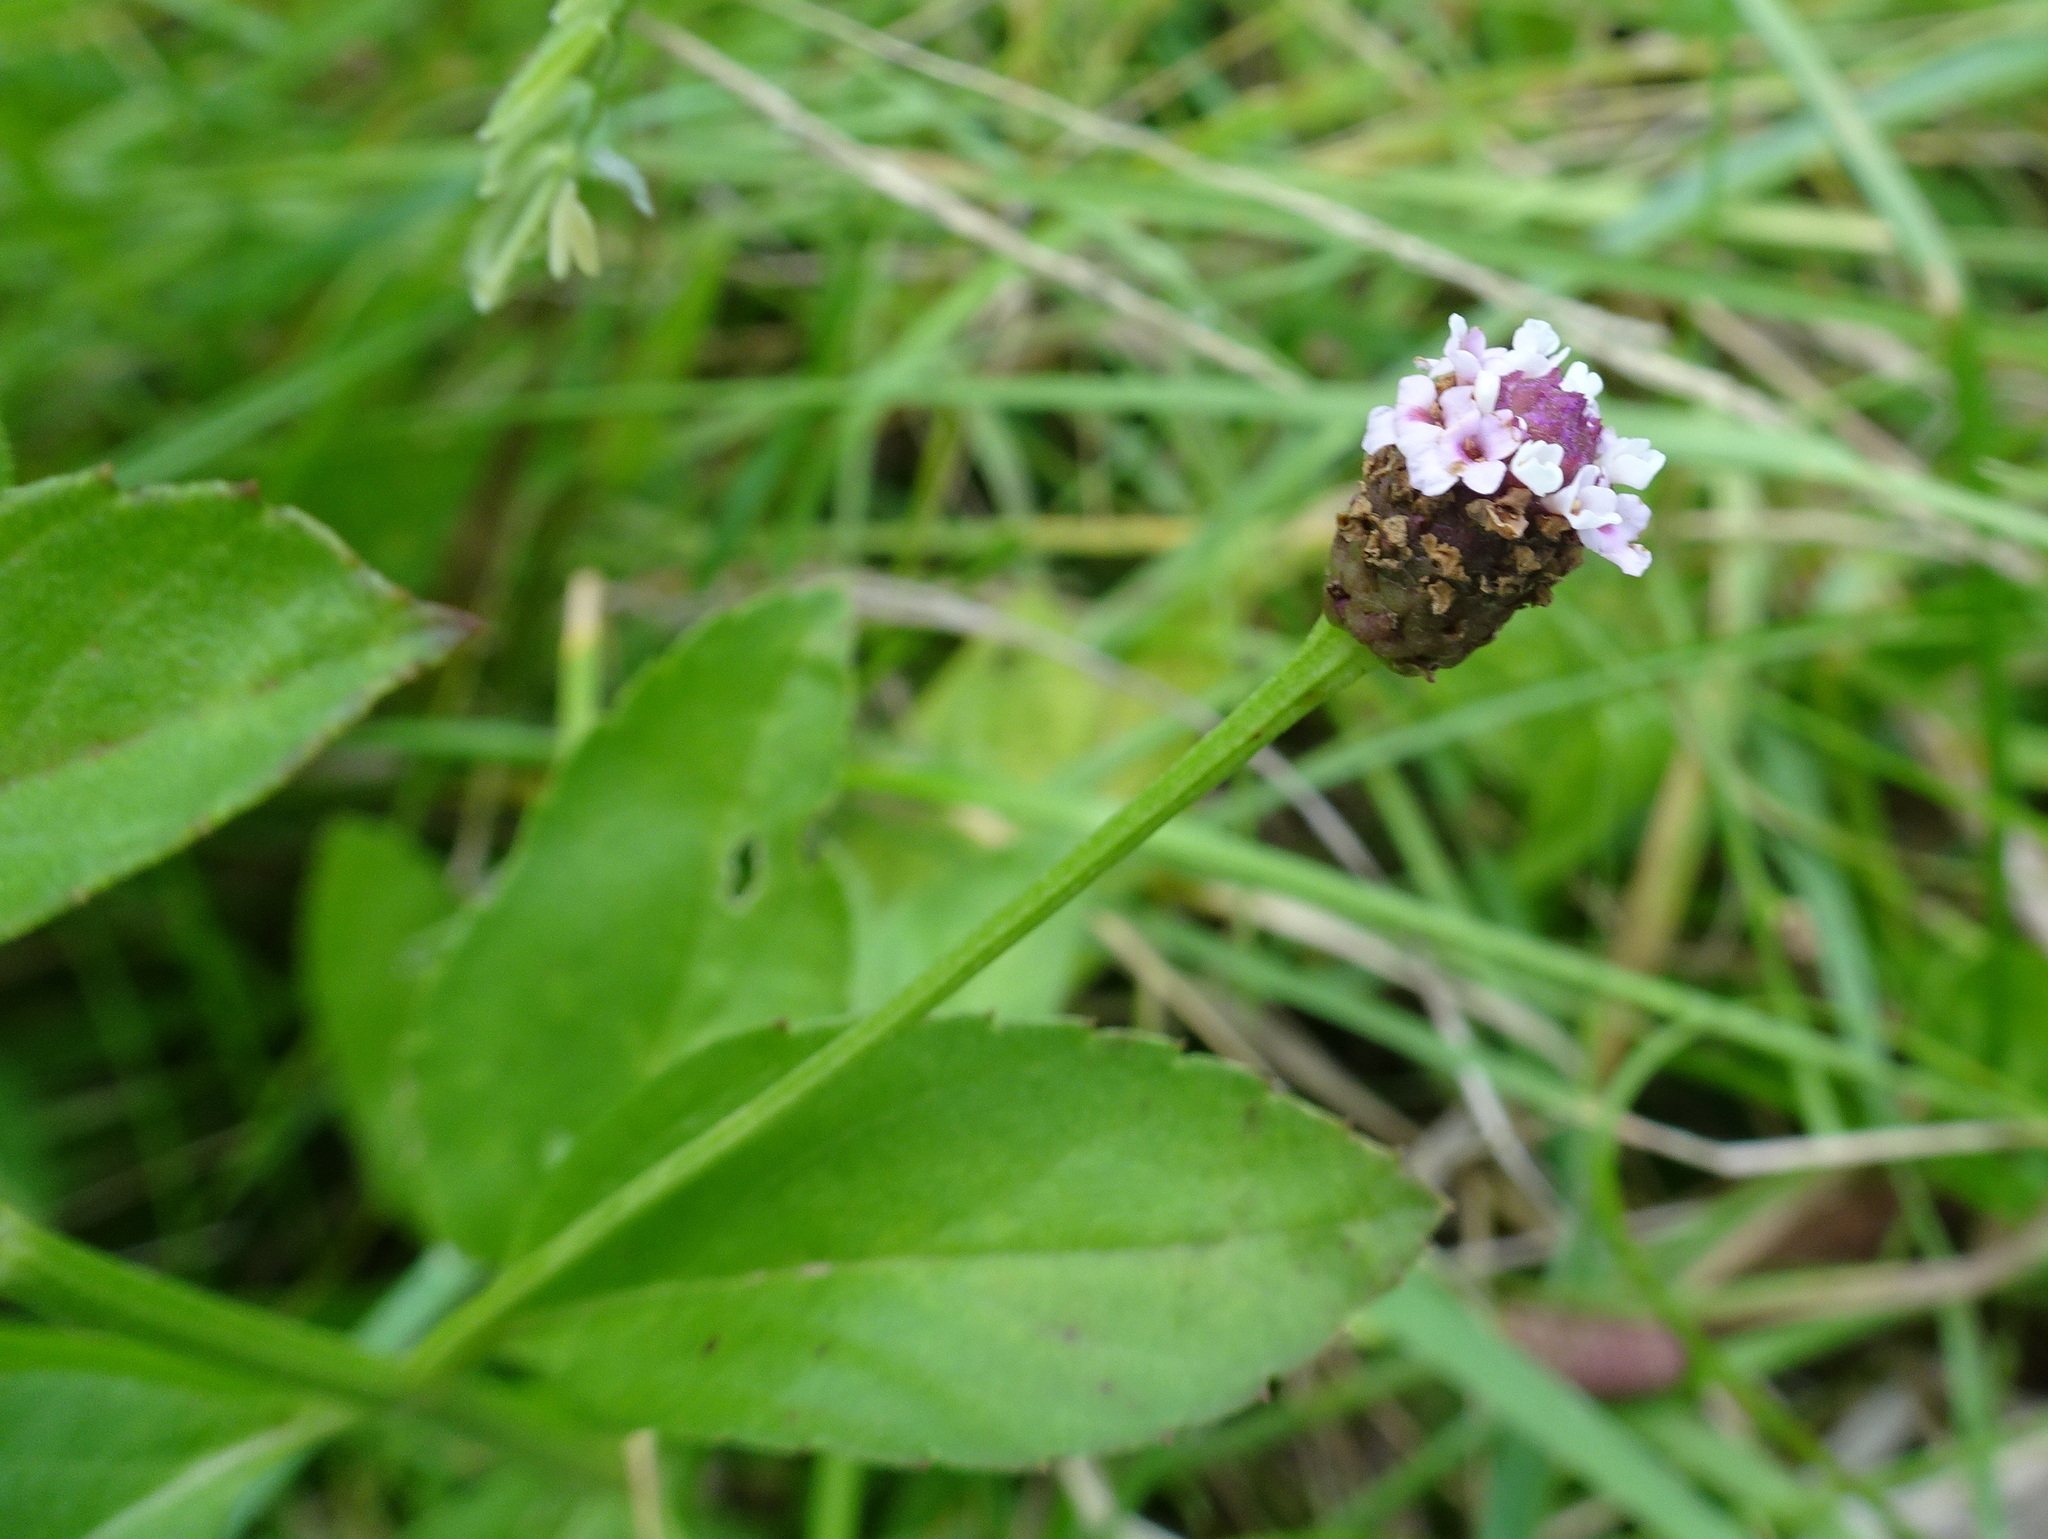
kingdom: Plantae
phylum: Tracheophyta
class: Magnoliopsida
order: Lamiales
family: Verbenaceae
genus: Phyla
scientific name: Phyla lanceolata
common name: Northern fogfruit
